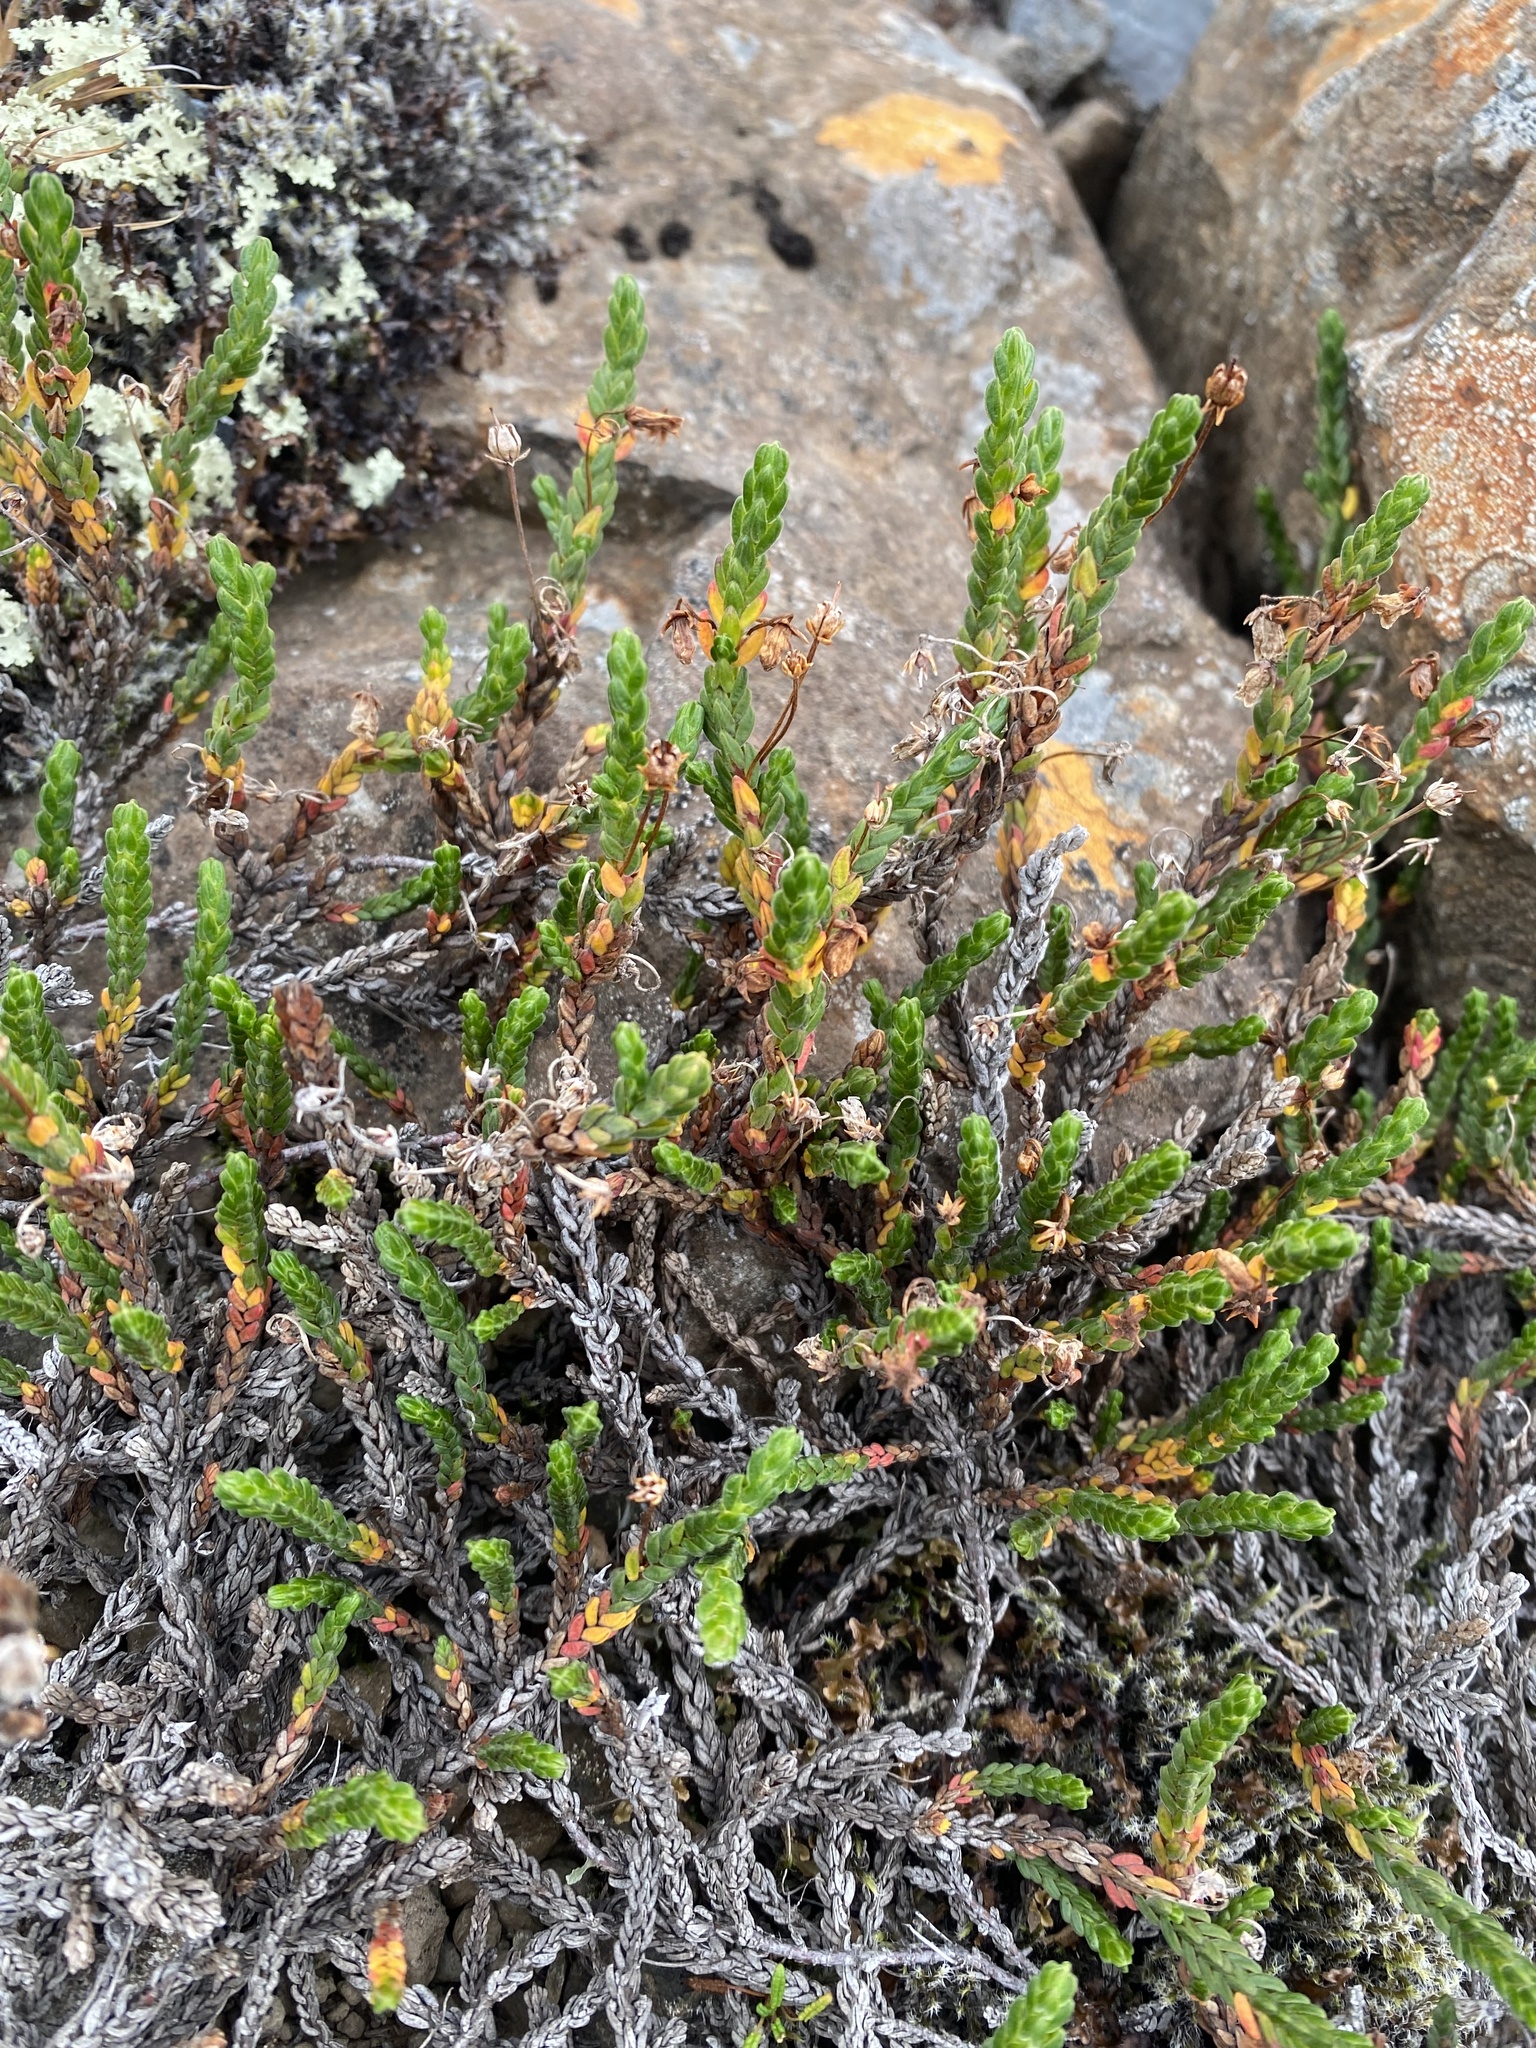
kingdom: Plantae
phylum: Tracheophyta
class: Magnoliopsida
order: Ericales
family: Ericaceae
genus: Cassiope
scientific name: Cassiope tetragona
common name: Arctic bell heather
